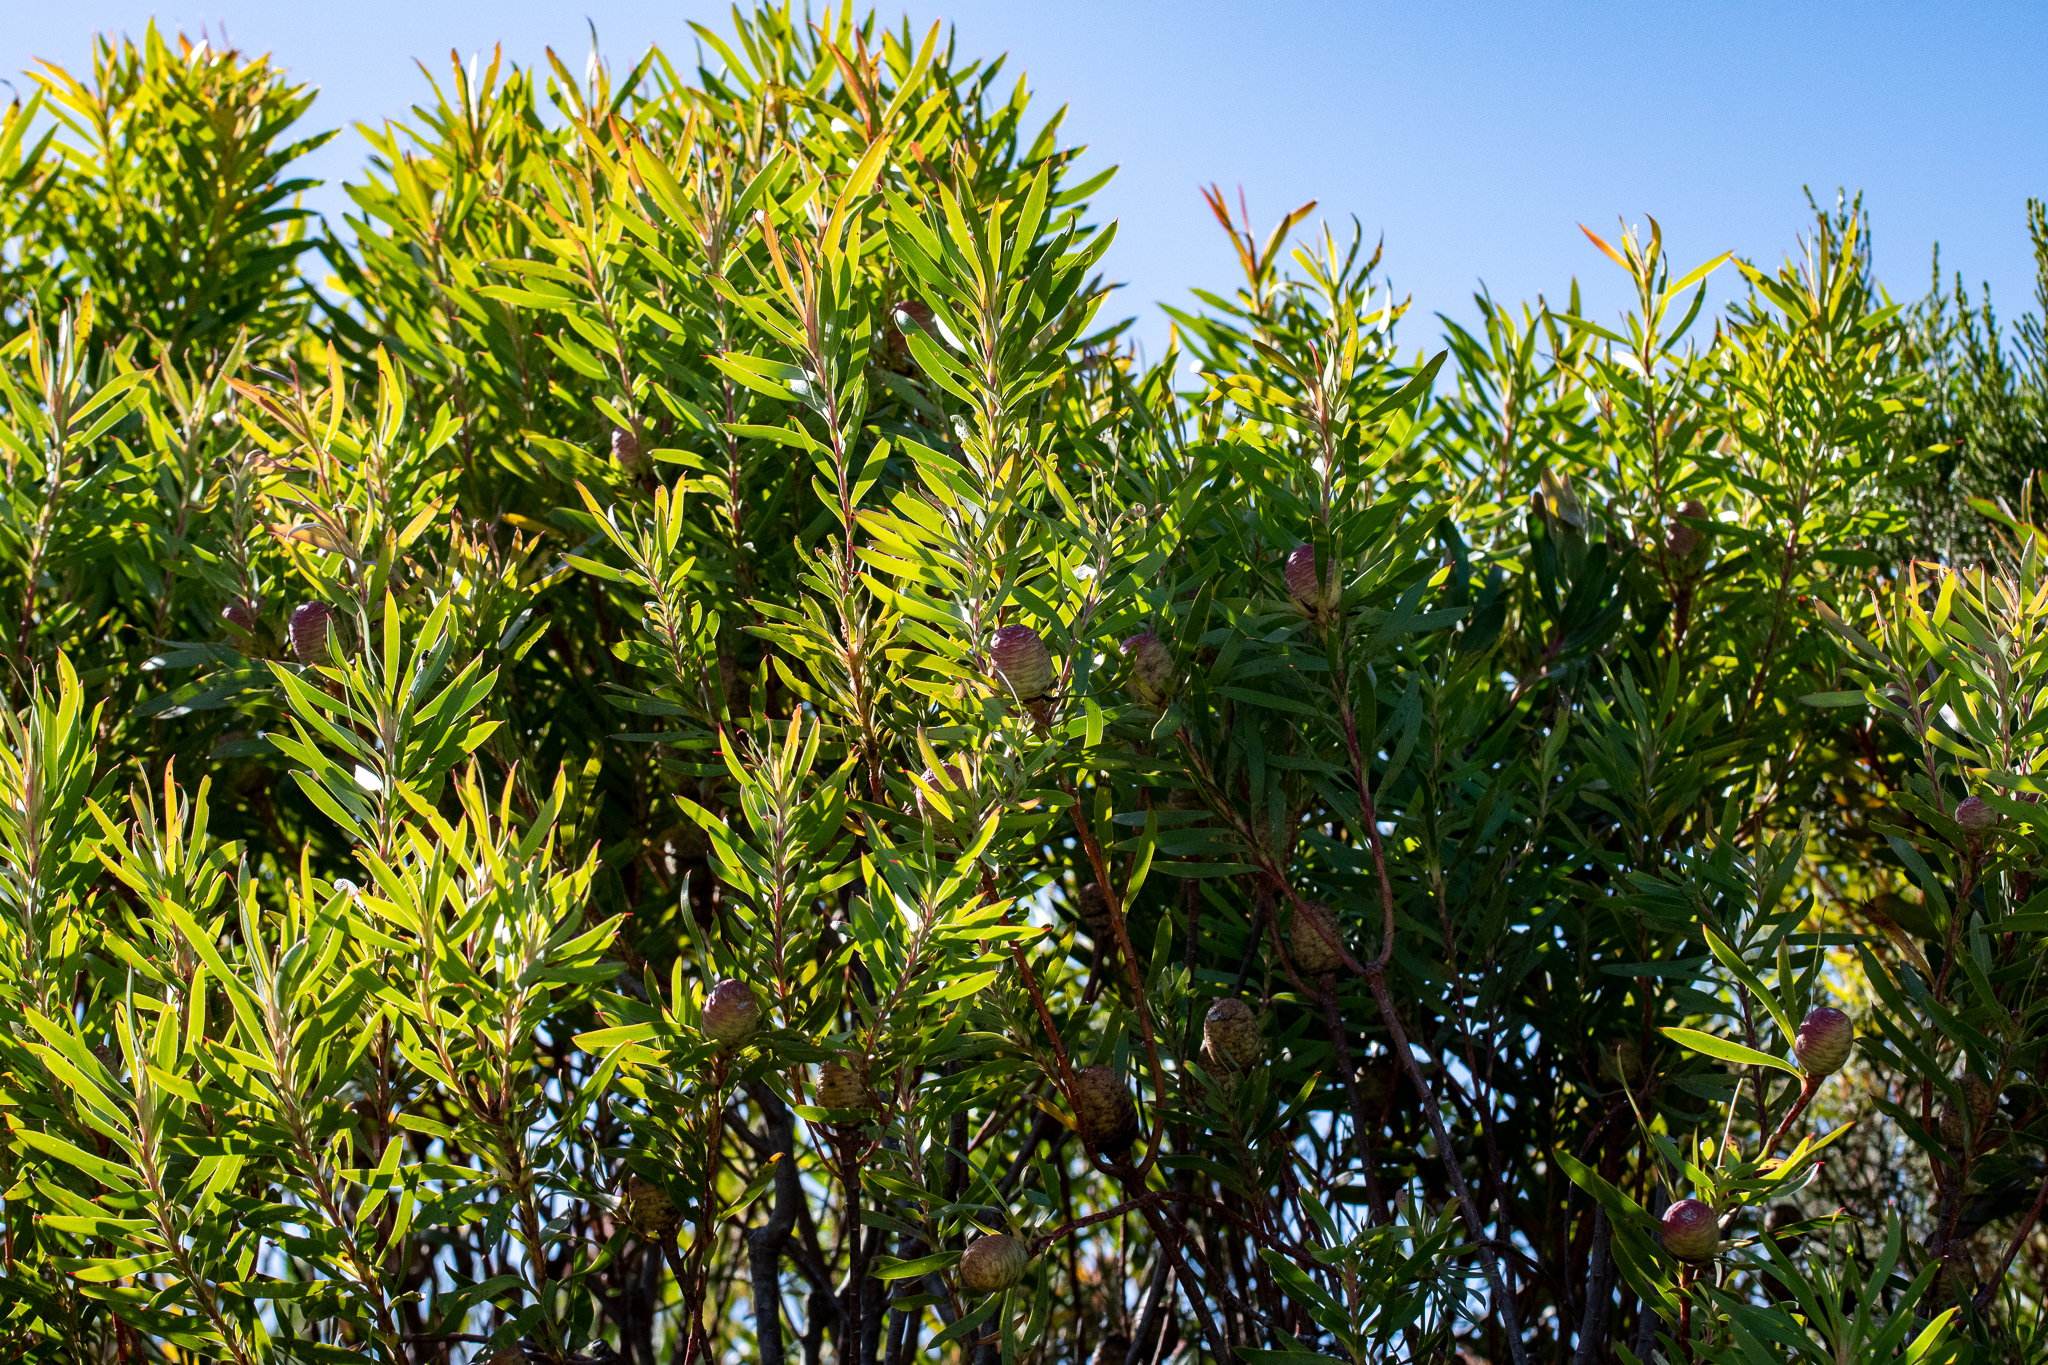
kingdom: Plantae
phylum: Tracheophyta
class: Magnoliopsida
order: Proteales
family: Proteaceae
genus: Leucadendron
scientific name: Leucadendron coniferum
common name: Dune conebush
